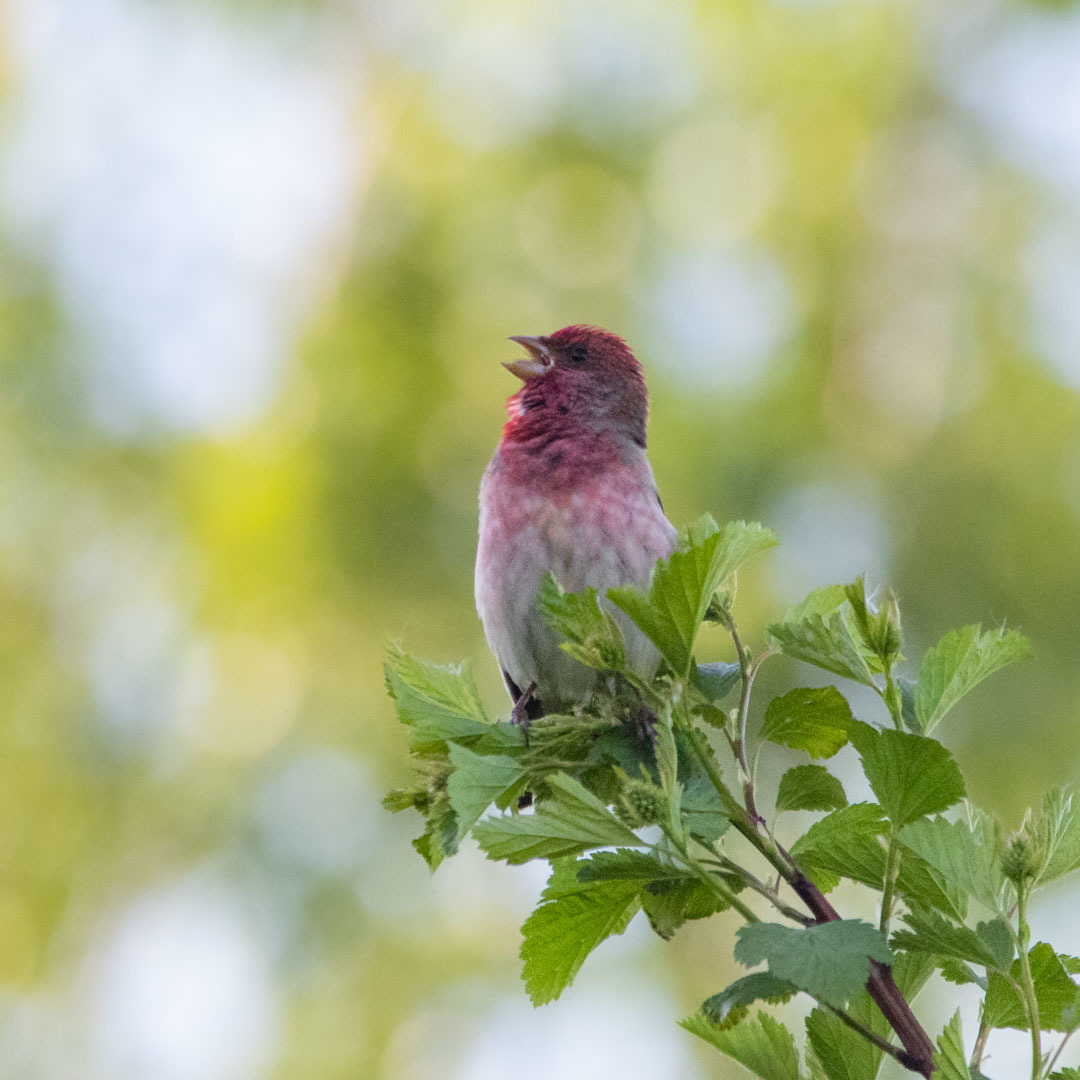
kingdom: Animalia
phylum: Chordata
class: Aves
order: Passeriformes
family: Fringillidae
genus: Carpodacus
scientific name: Carpodacus erythrinus
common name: Common rosefinch
